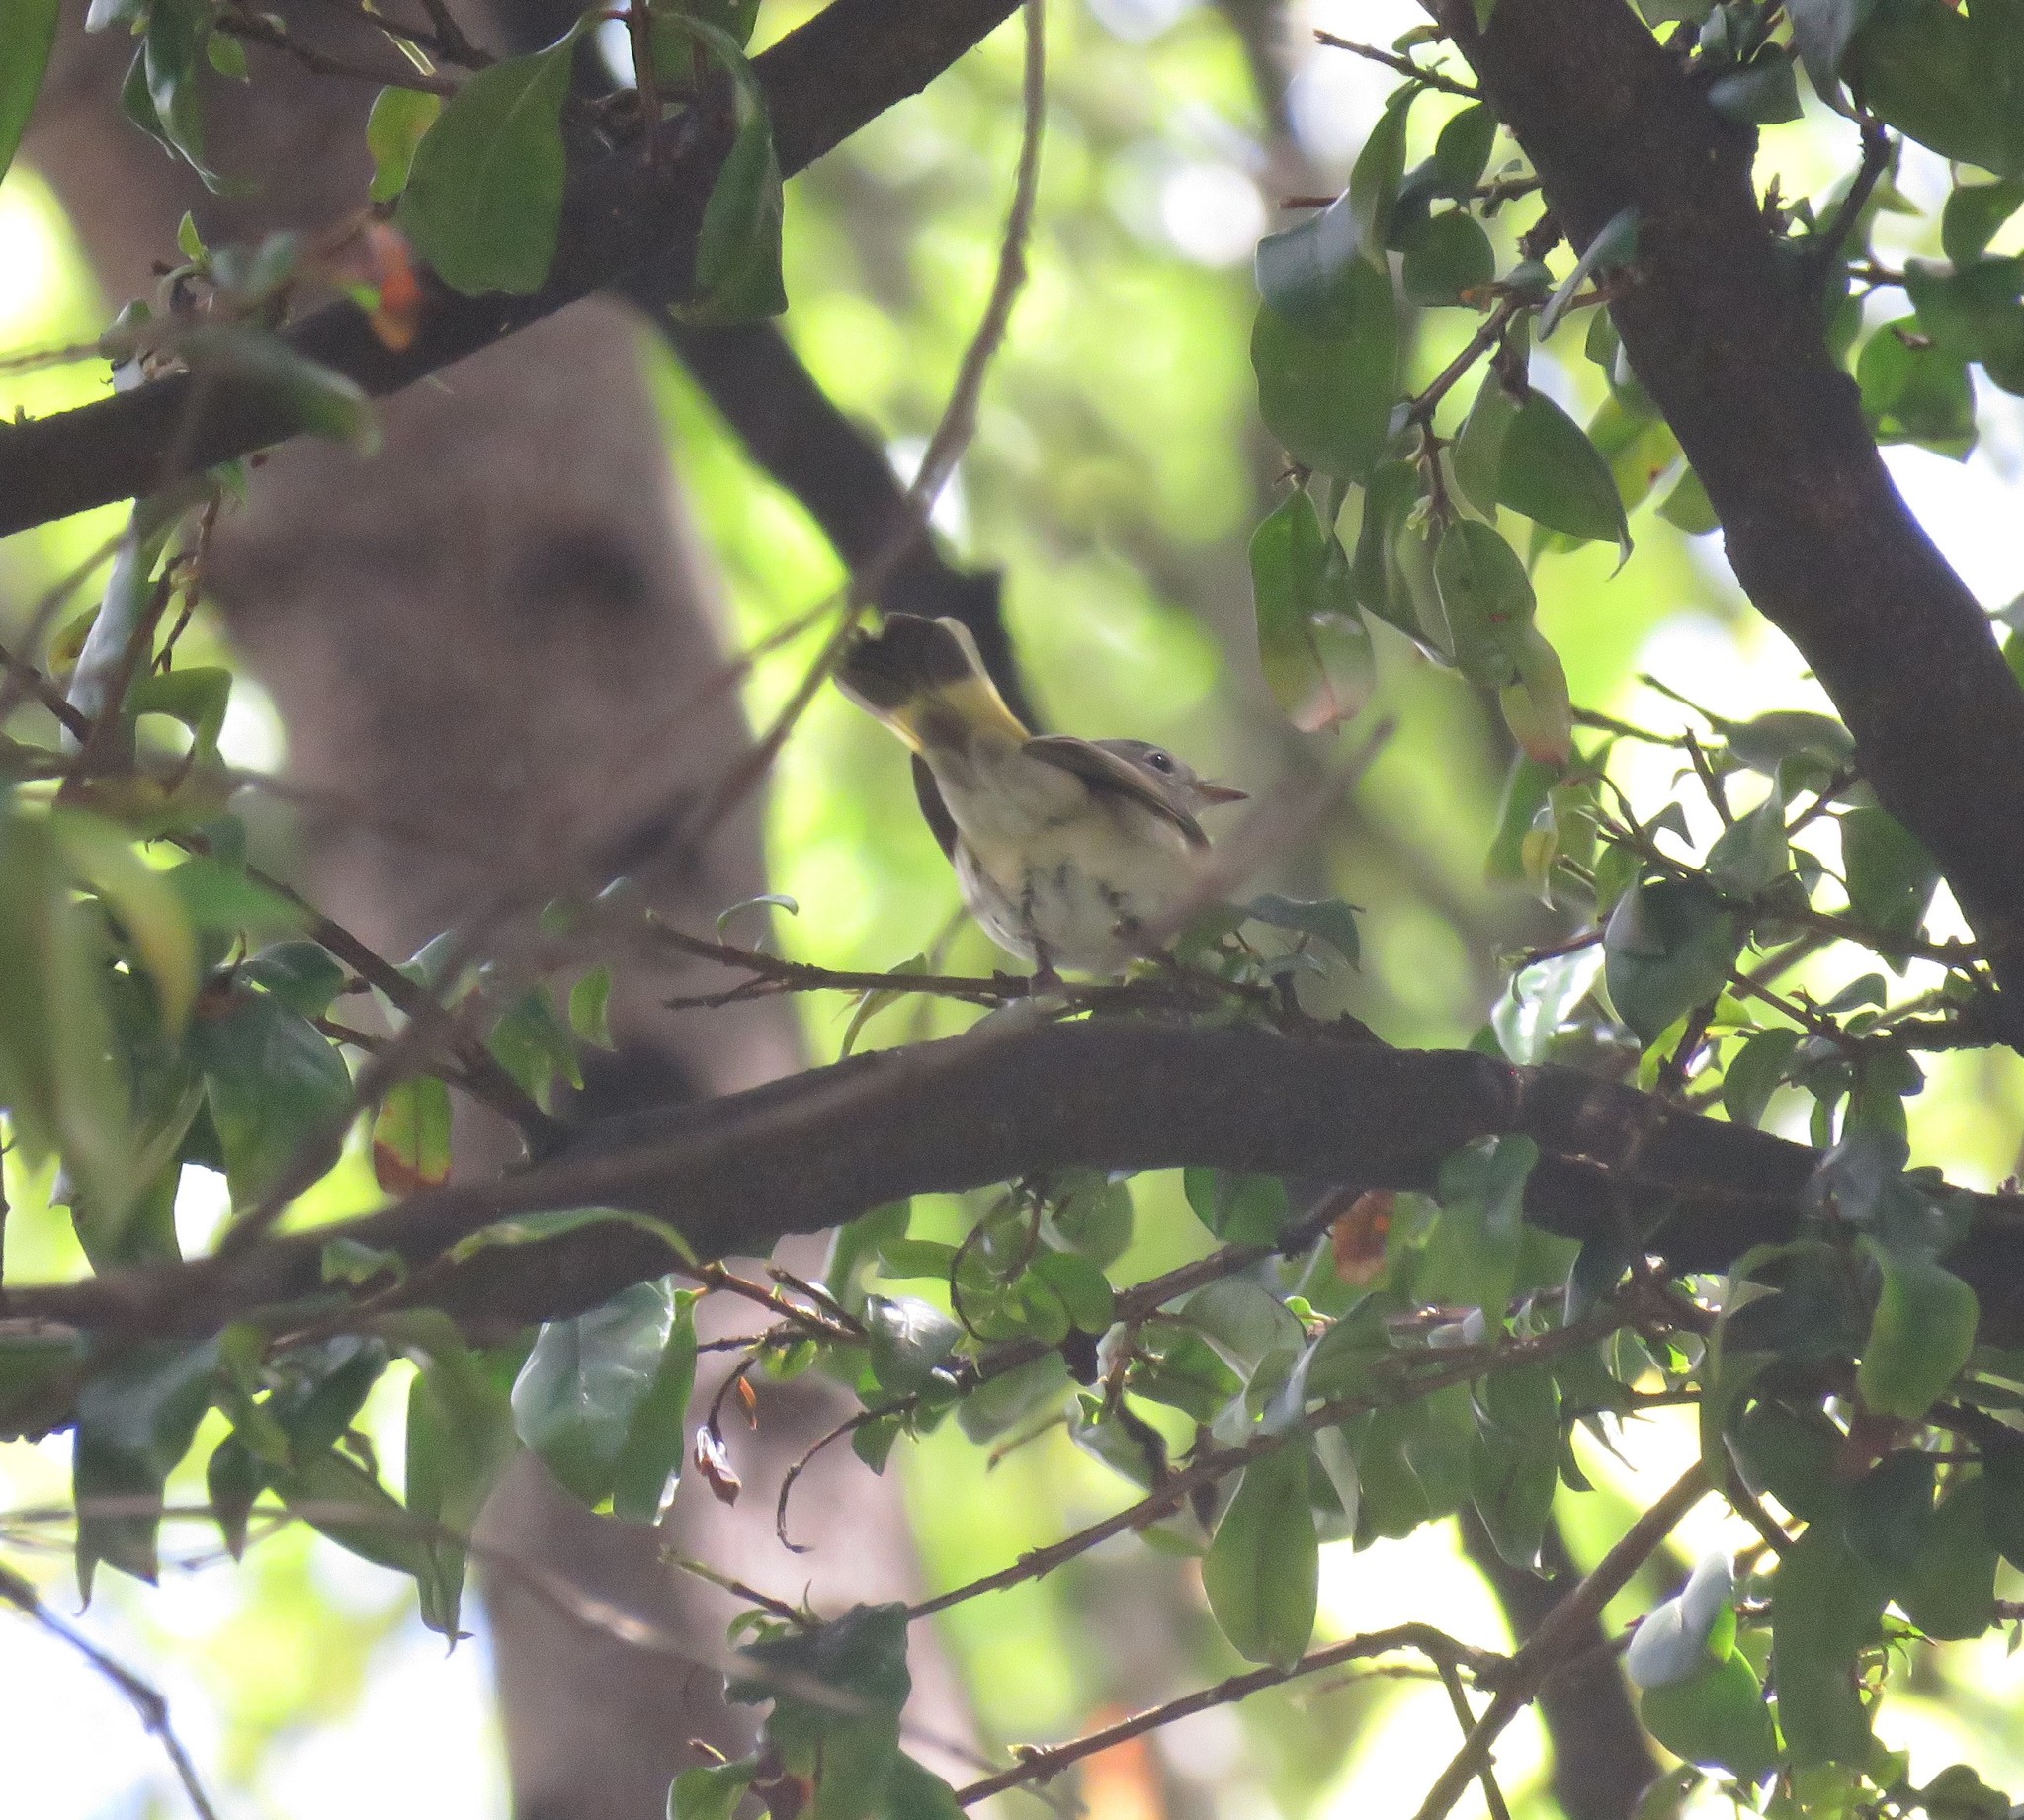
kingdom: Animalia
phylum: Chordata
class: Aves
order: Passeriformes
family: Parulidae
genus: Setophaga
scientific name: Setophaga ruticilla
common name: American redstart
